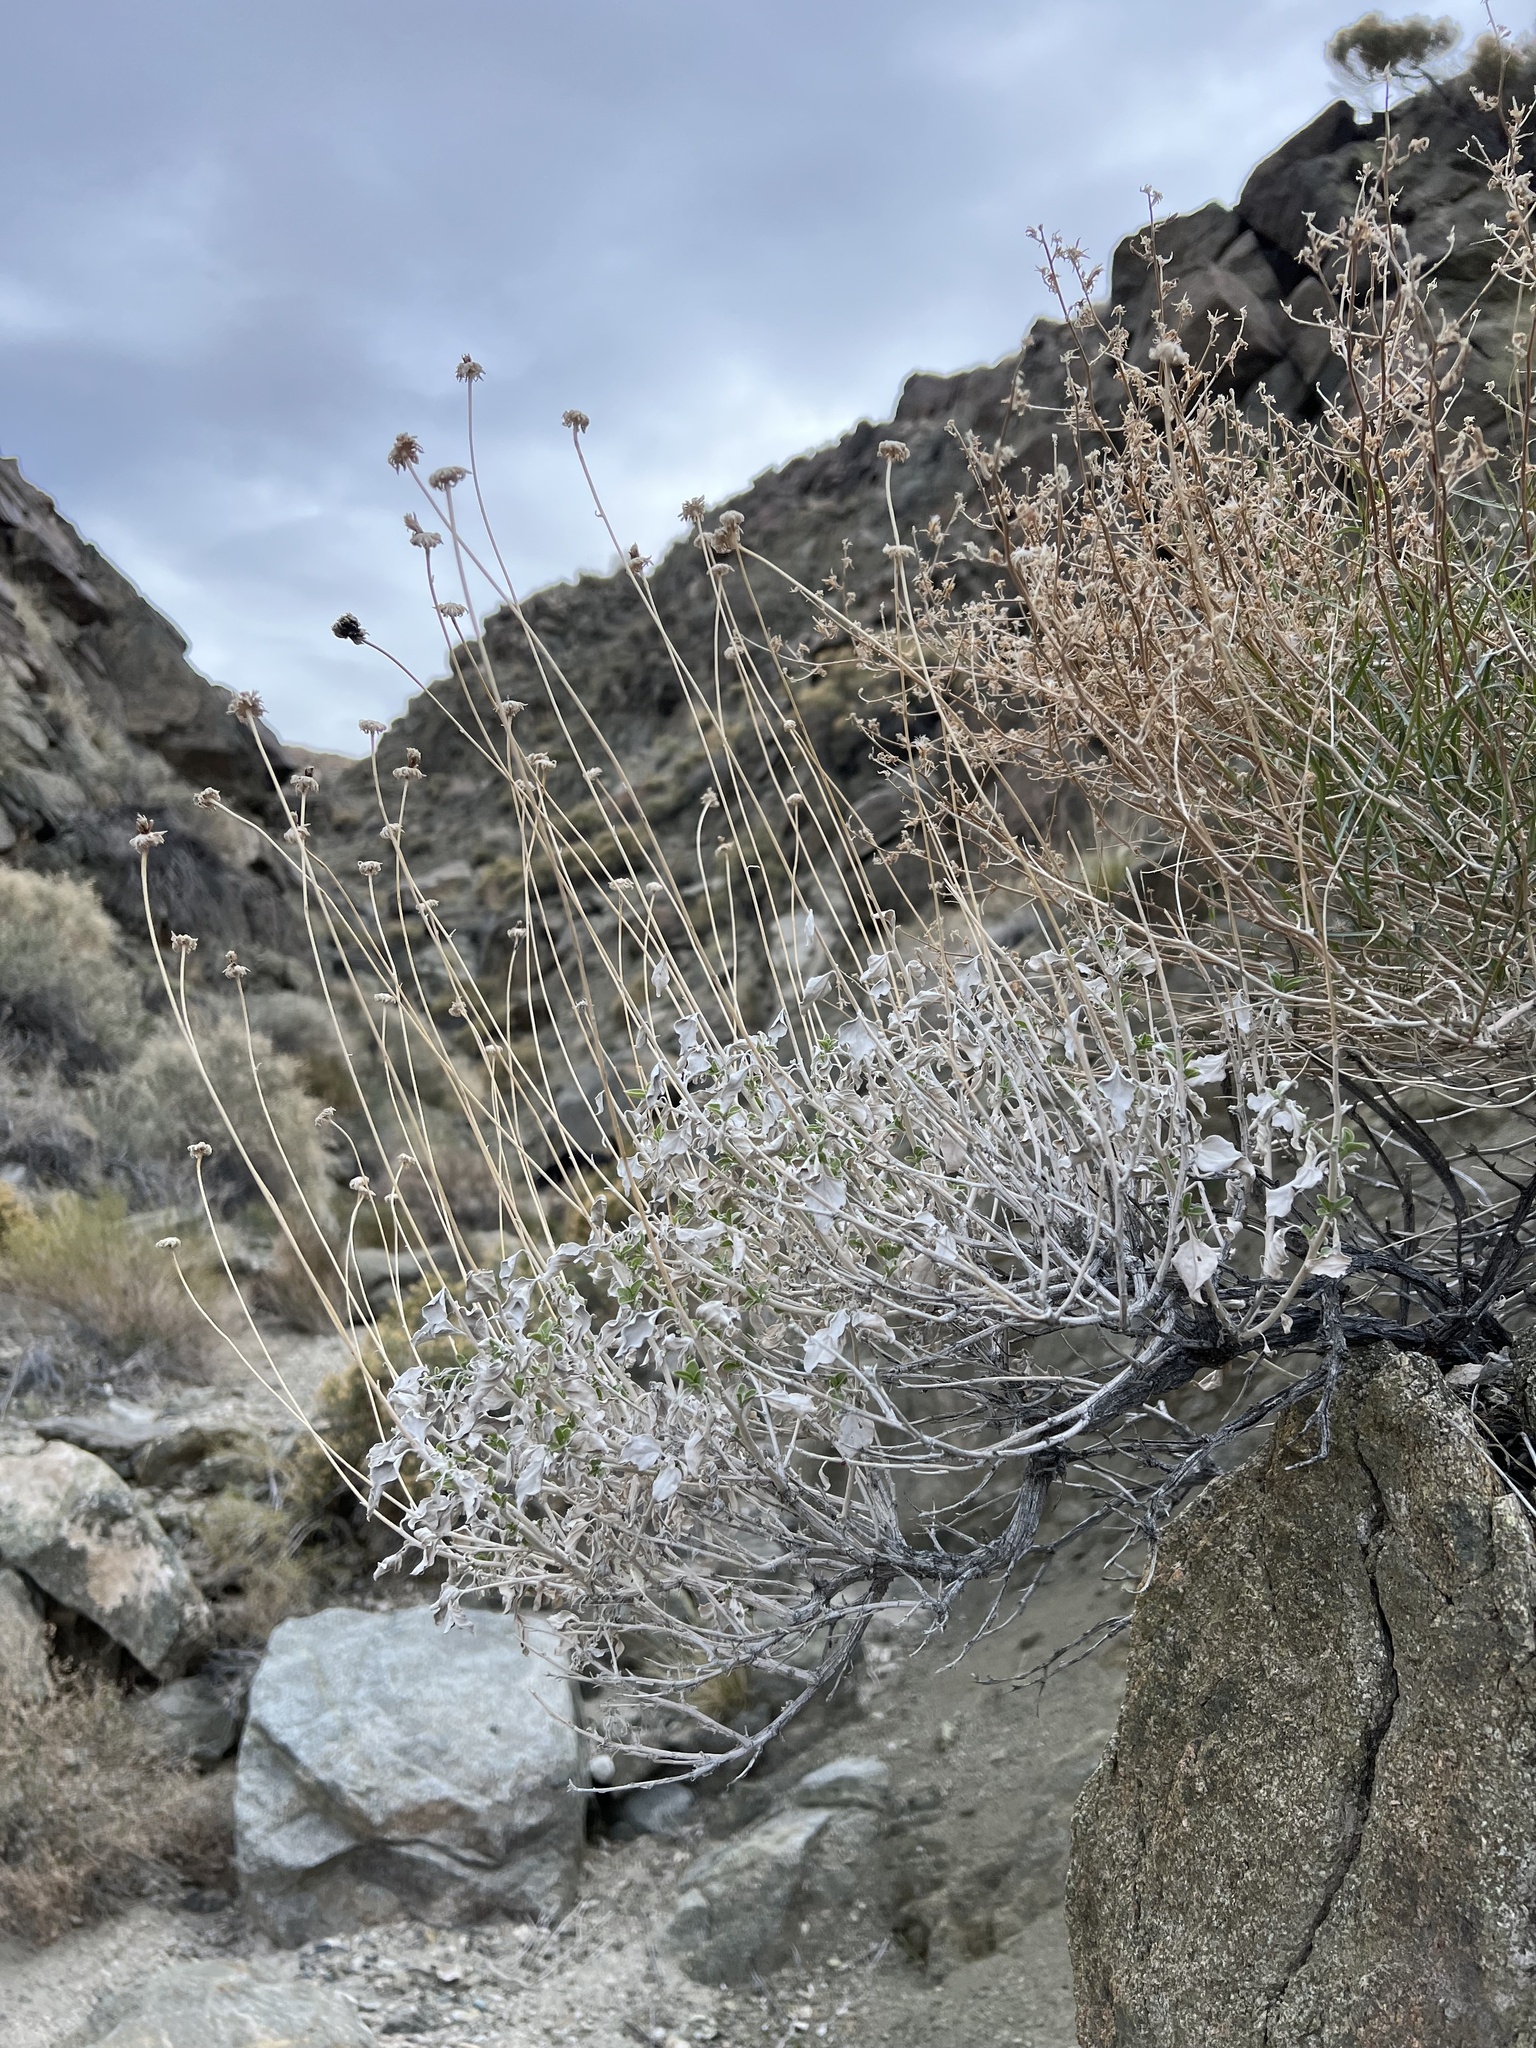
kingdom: Plantae
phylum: Tracheophyta
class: Magnoliopsida
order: Asterales
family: Asteraceae
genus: Encelia
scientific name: Encelia actoni
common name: Acton encelia
